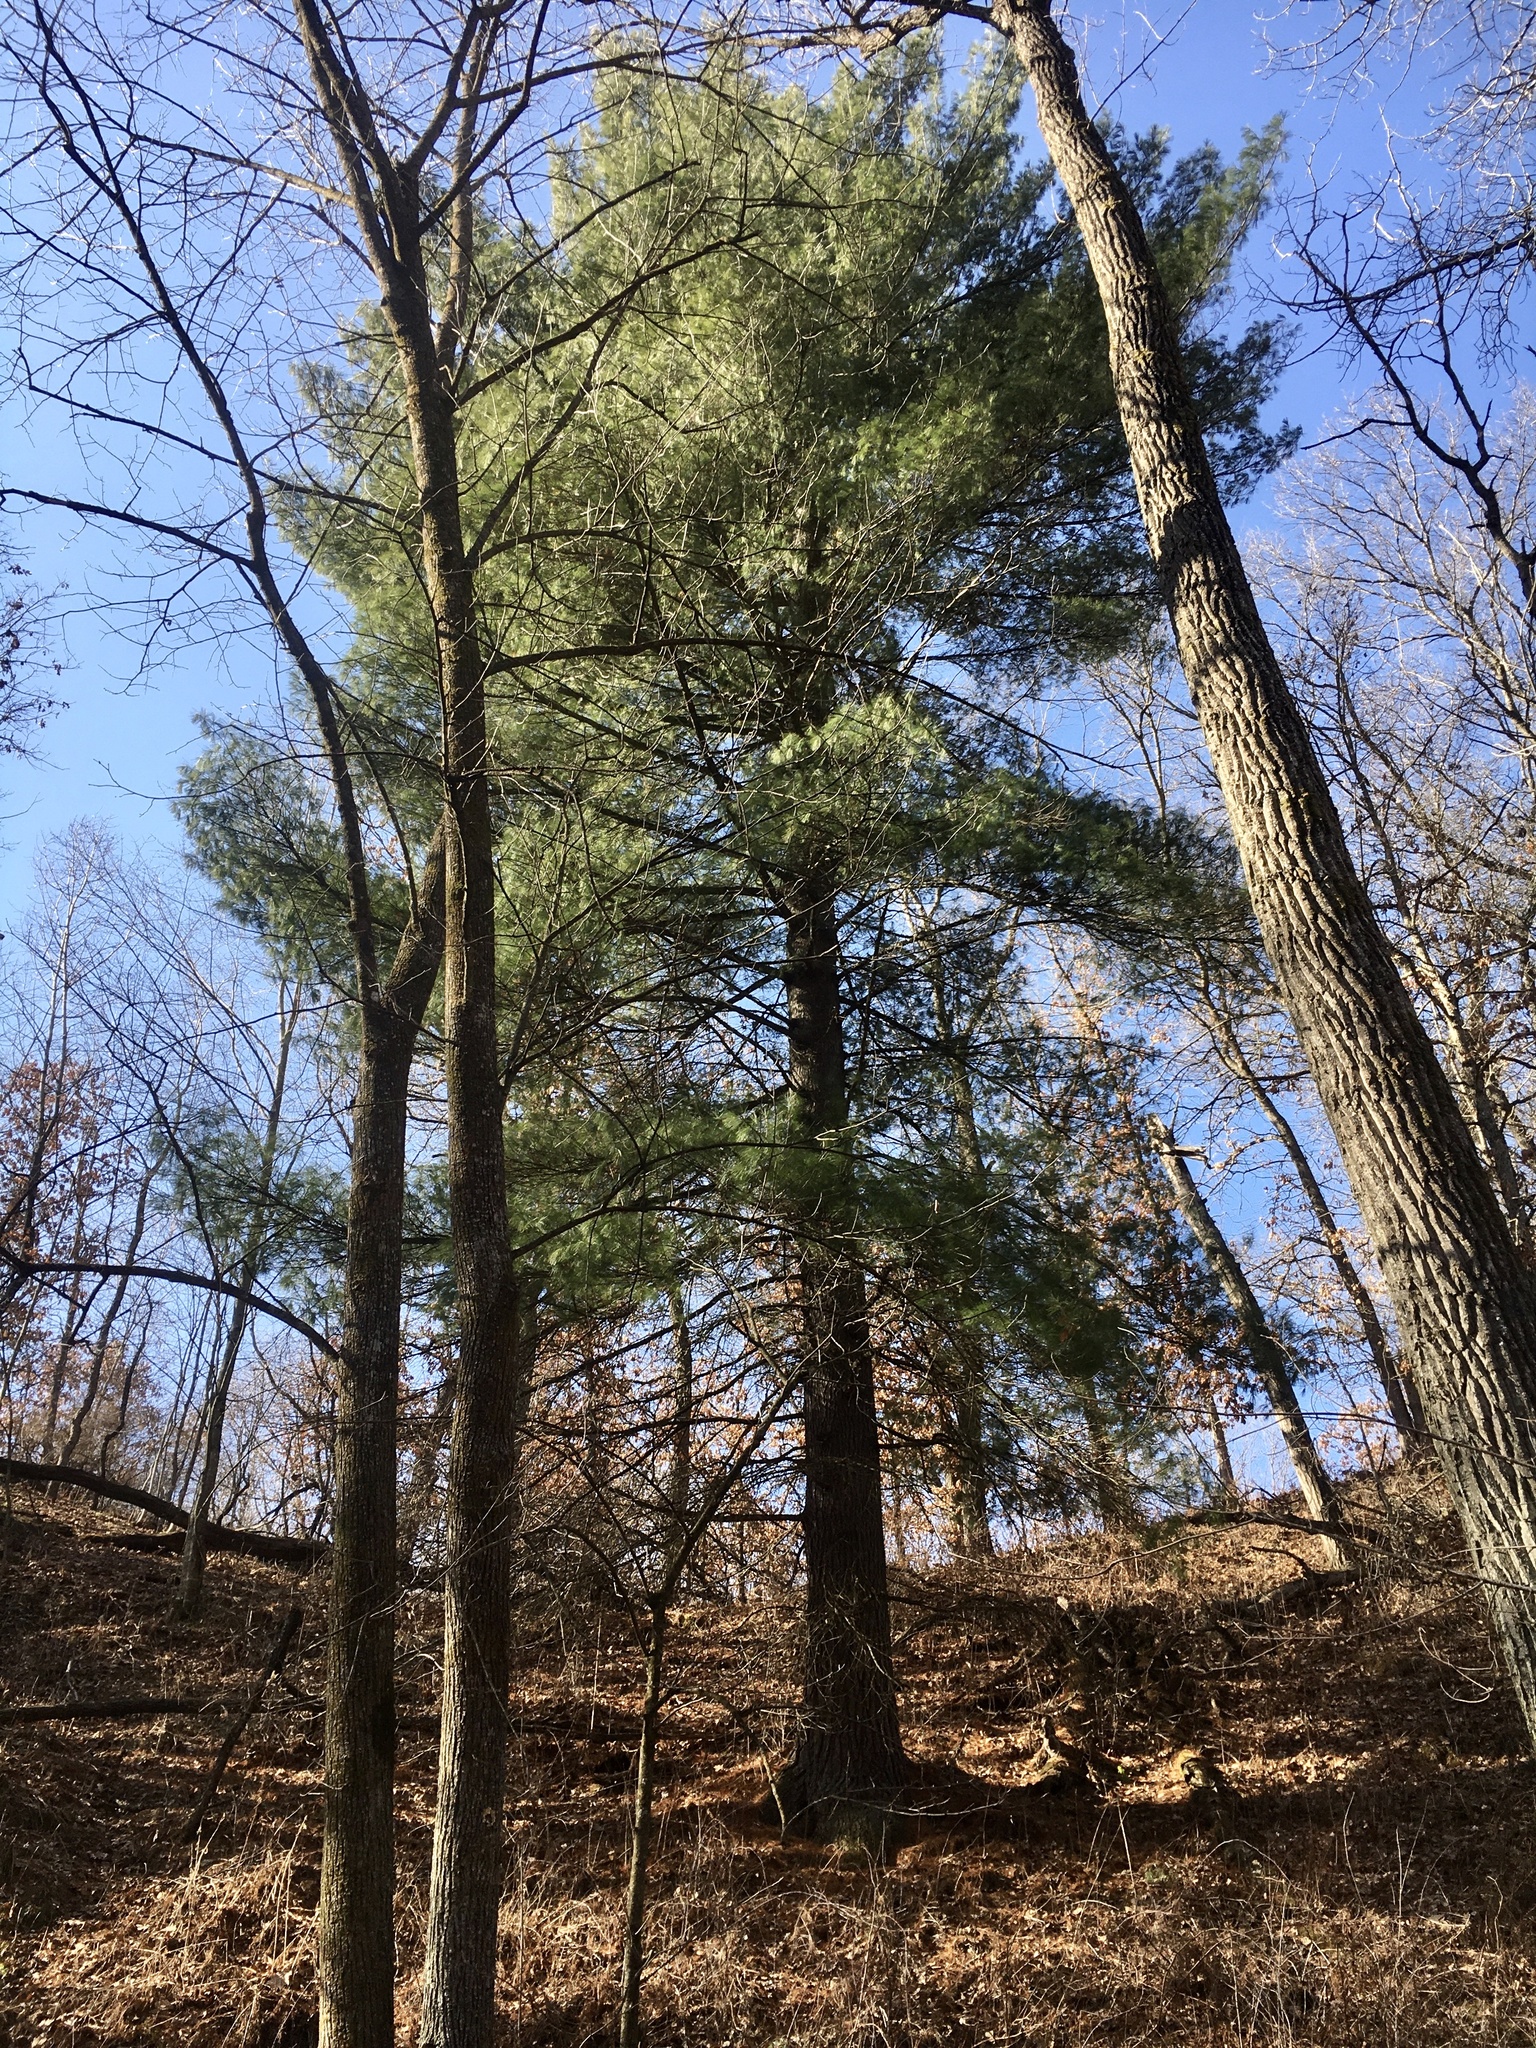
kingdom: Plantae
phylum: Tracheophyta
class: Pinopsida
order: Pinales
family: Pinaceae
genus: Pinus
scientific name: Pinus strobus
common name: Weymouth pine
